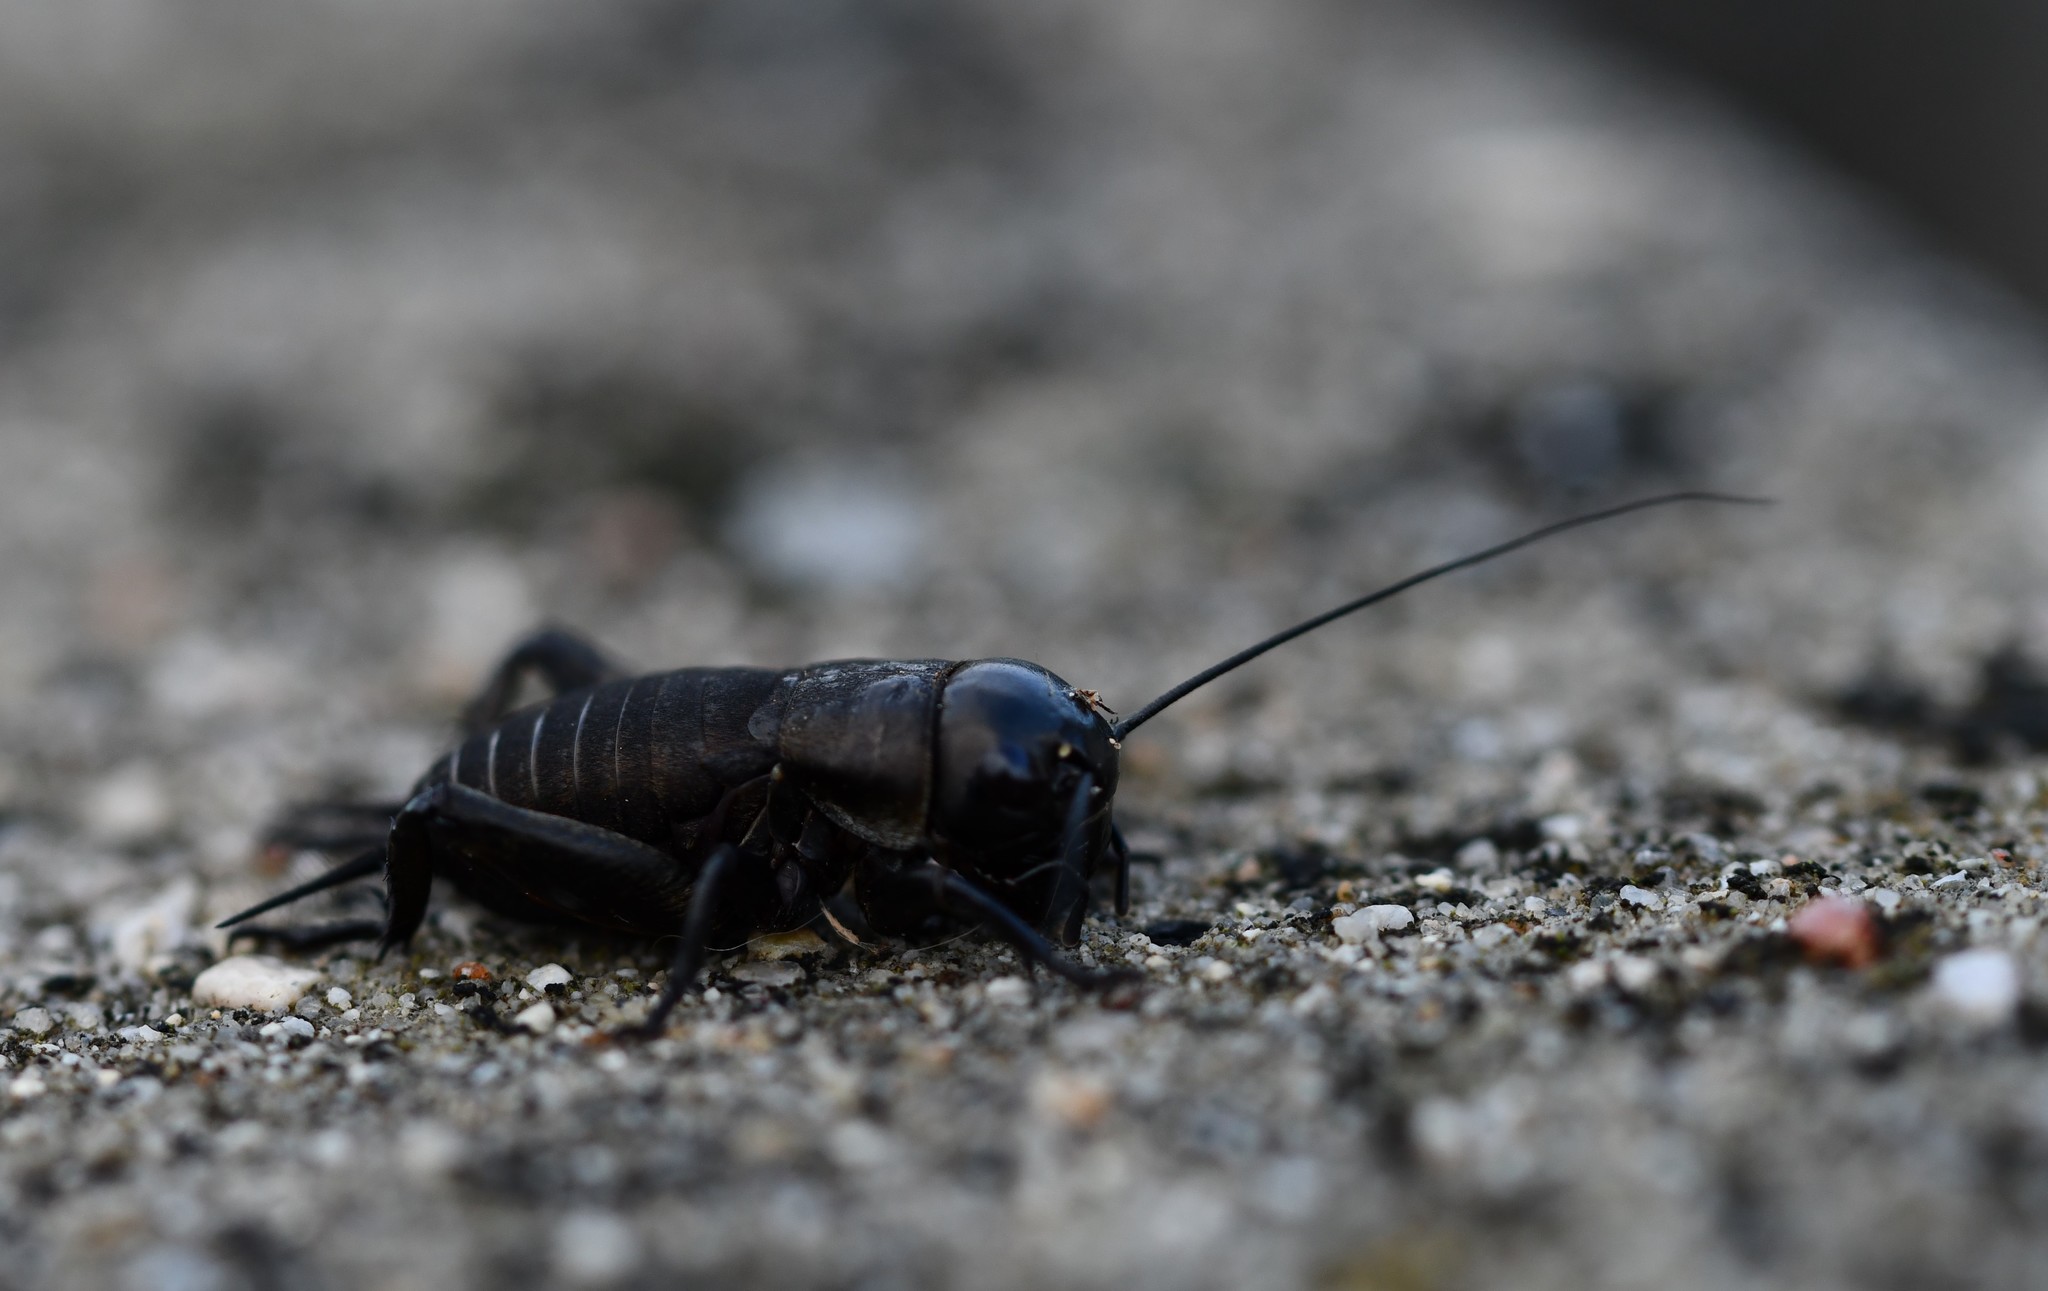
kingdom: Animalia
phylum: Arthropoda
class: Insecta
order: Orthoptera
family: Gryllidae
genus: Gryllus
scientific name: Gryllus campestris
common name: Field cricket
